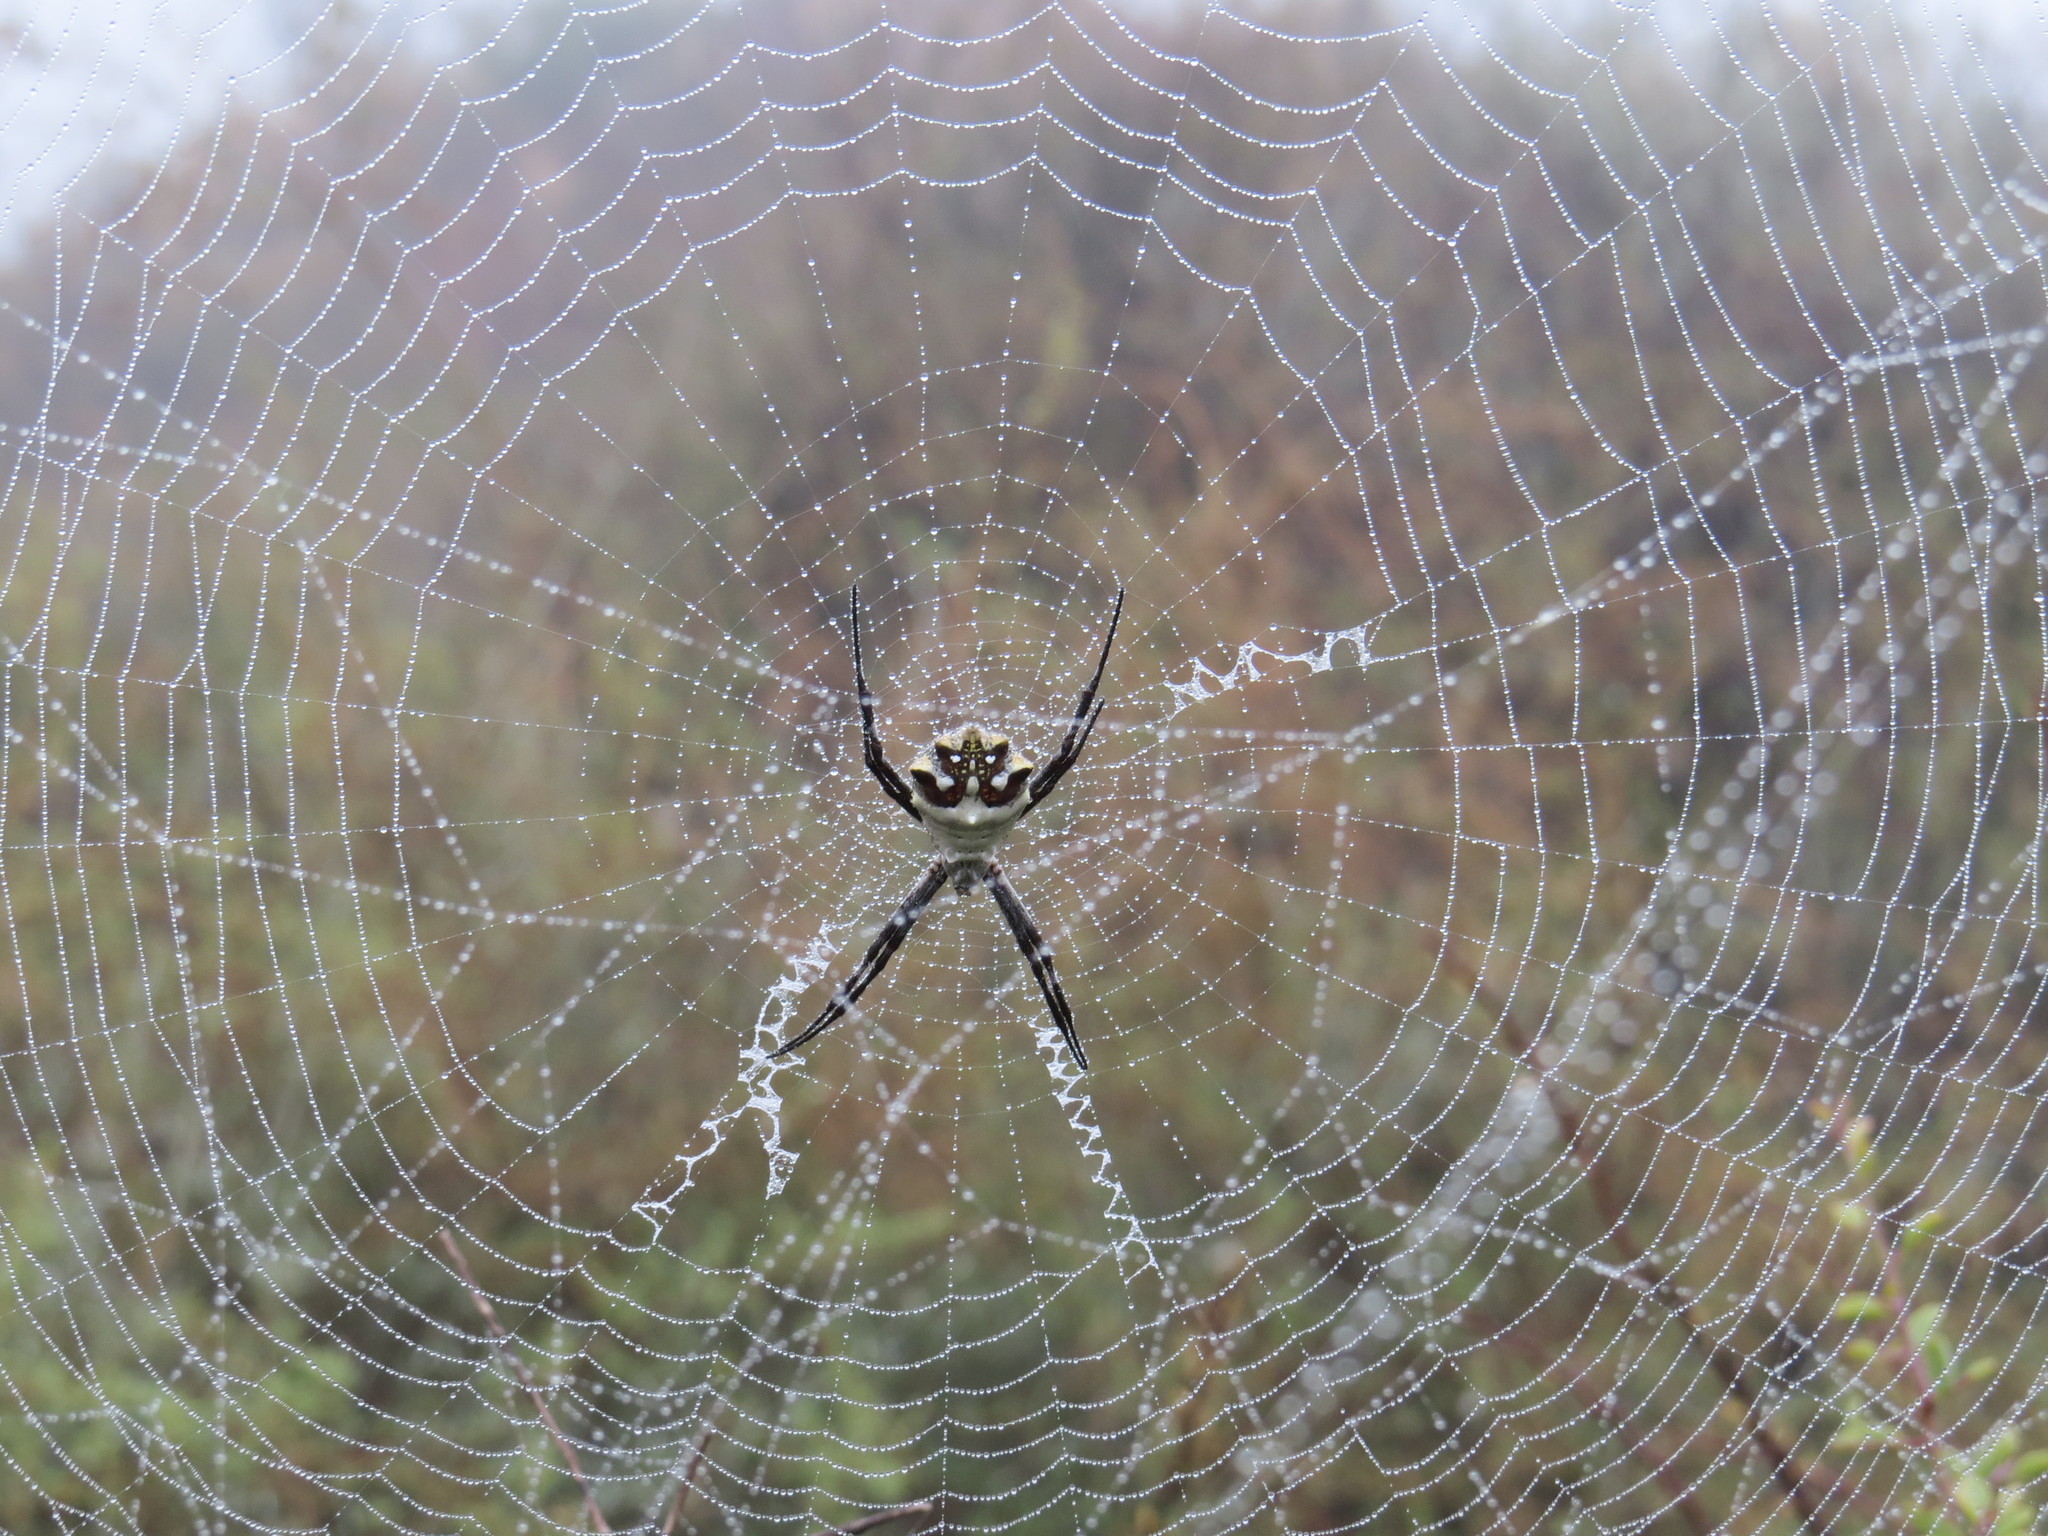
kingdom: Animalia
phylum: Arthropoda
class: Arachnida
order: Araneae
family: Araneidae
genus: Argiope
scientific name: Argiope argentata
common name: Orb weavers
